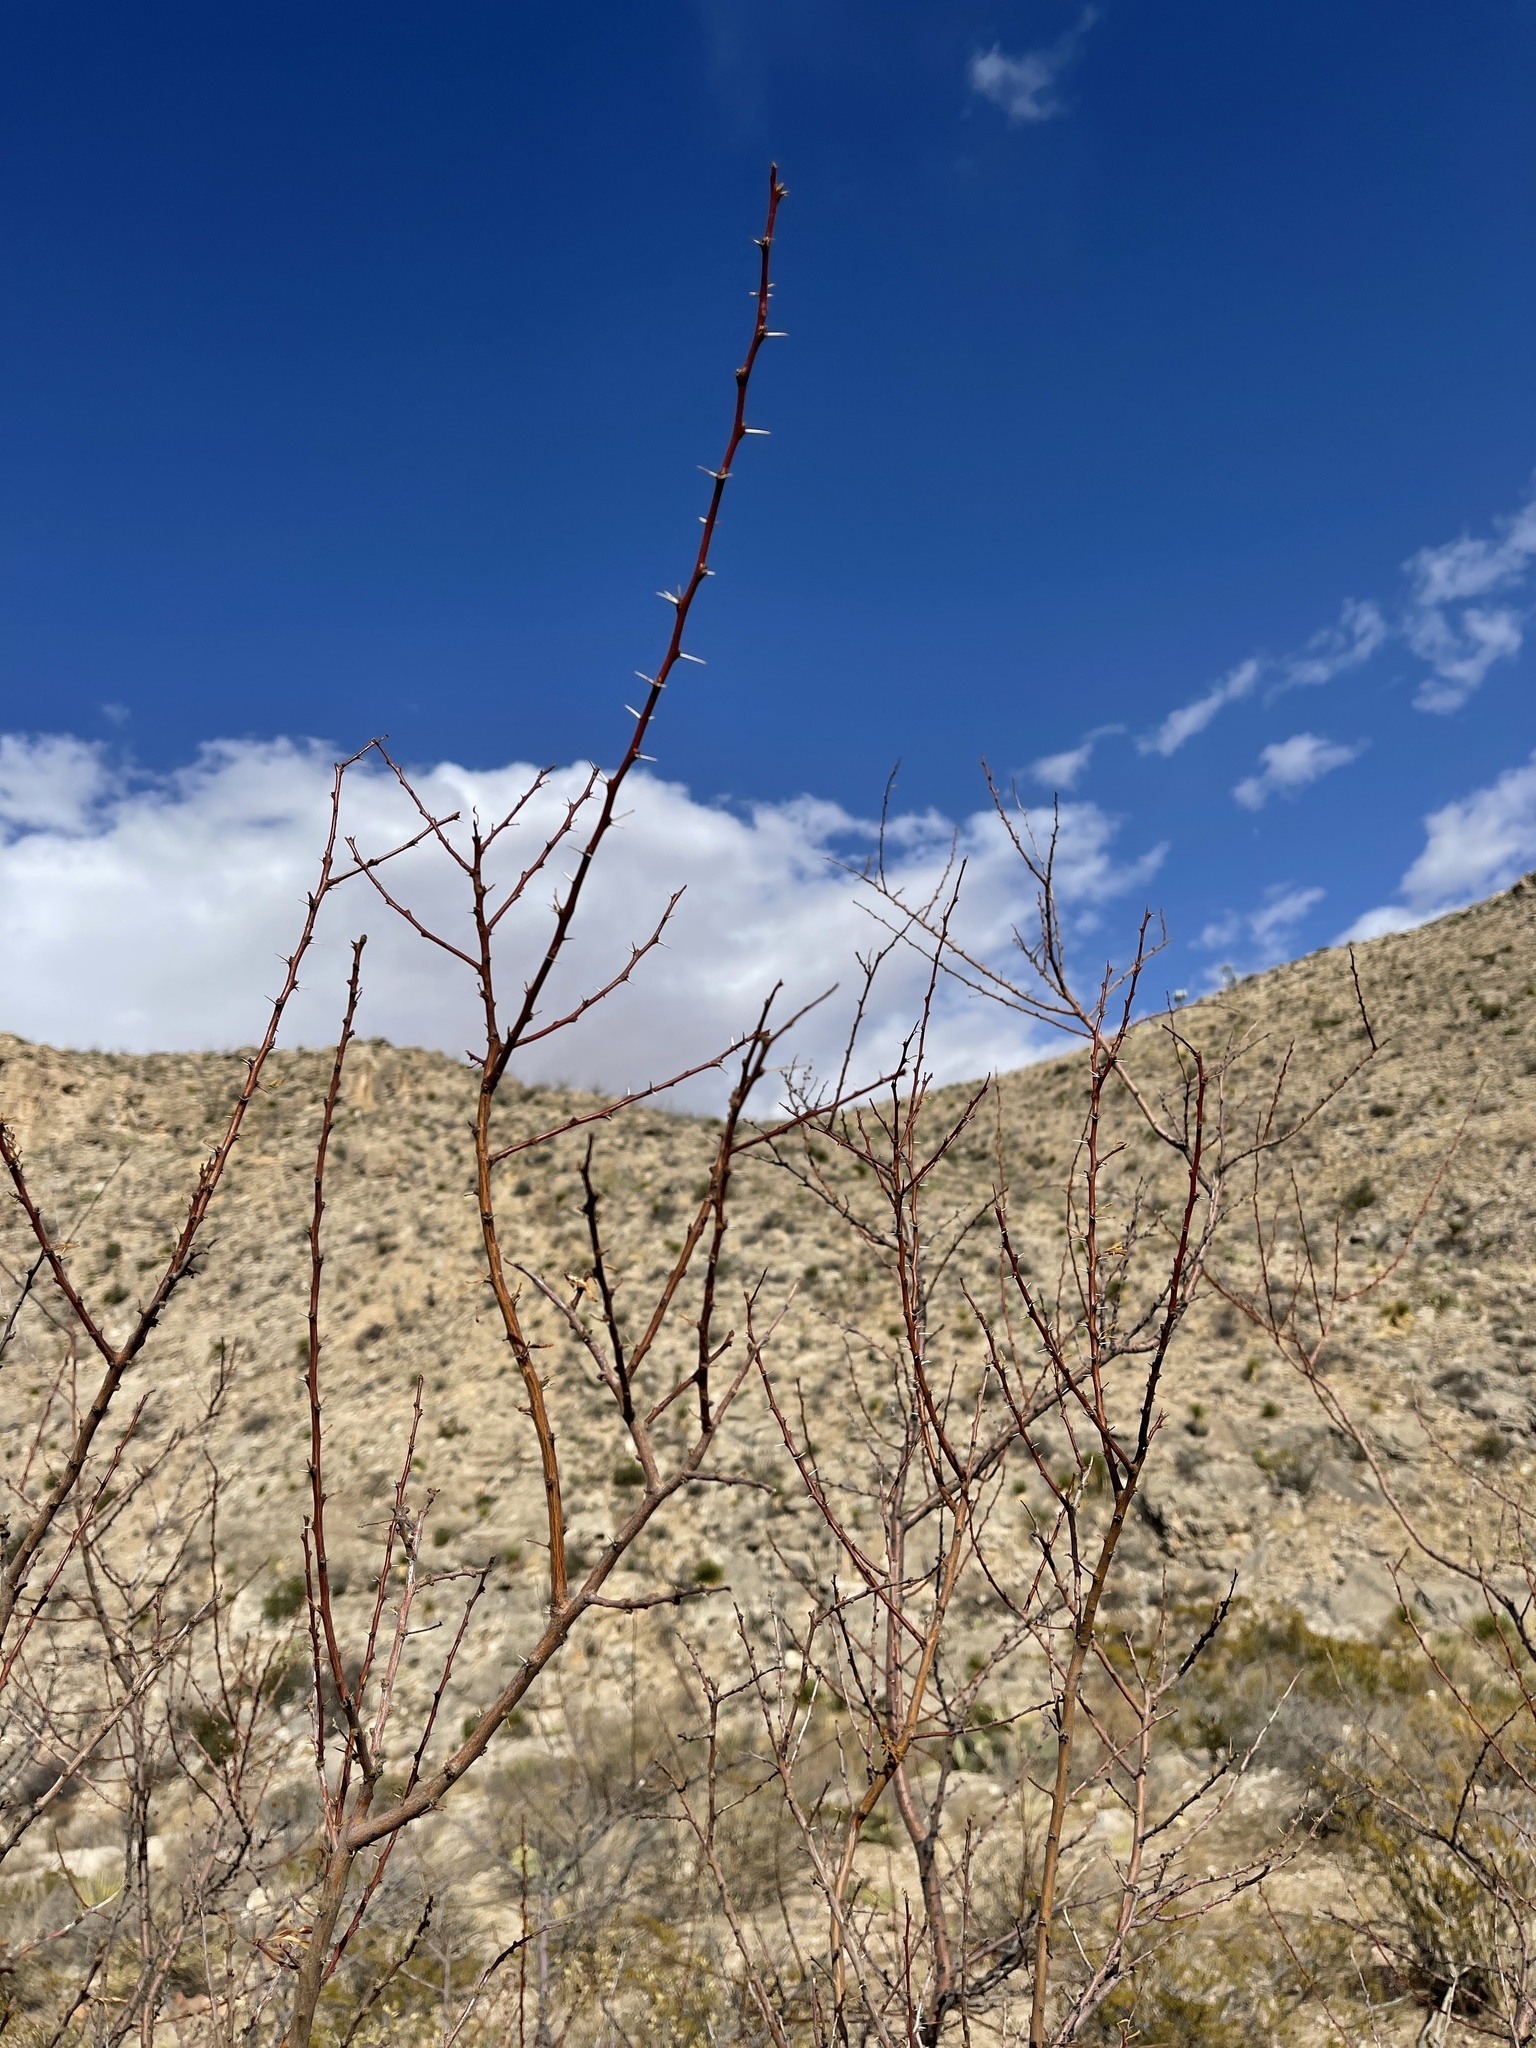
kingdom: Plantae
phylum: Tracheophyta
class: Magnoliopsida
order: Fabales
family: Fabaceae
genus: Vachellia
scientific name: Vachellia constricta
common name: Mescat acacia
